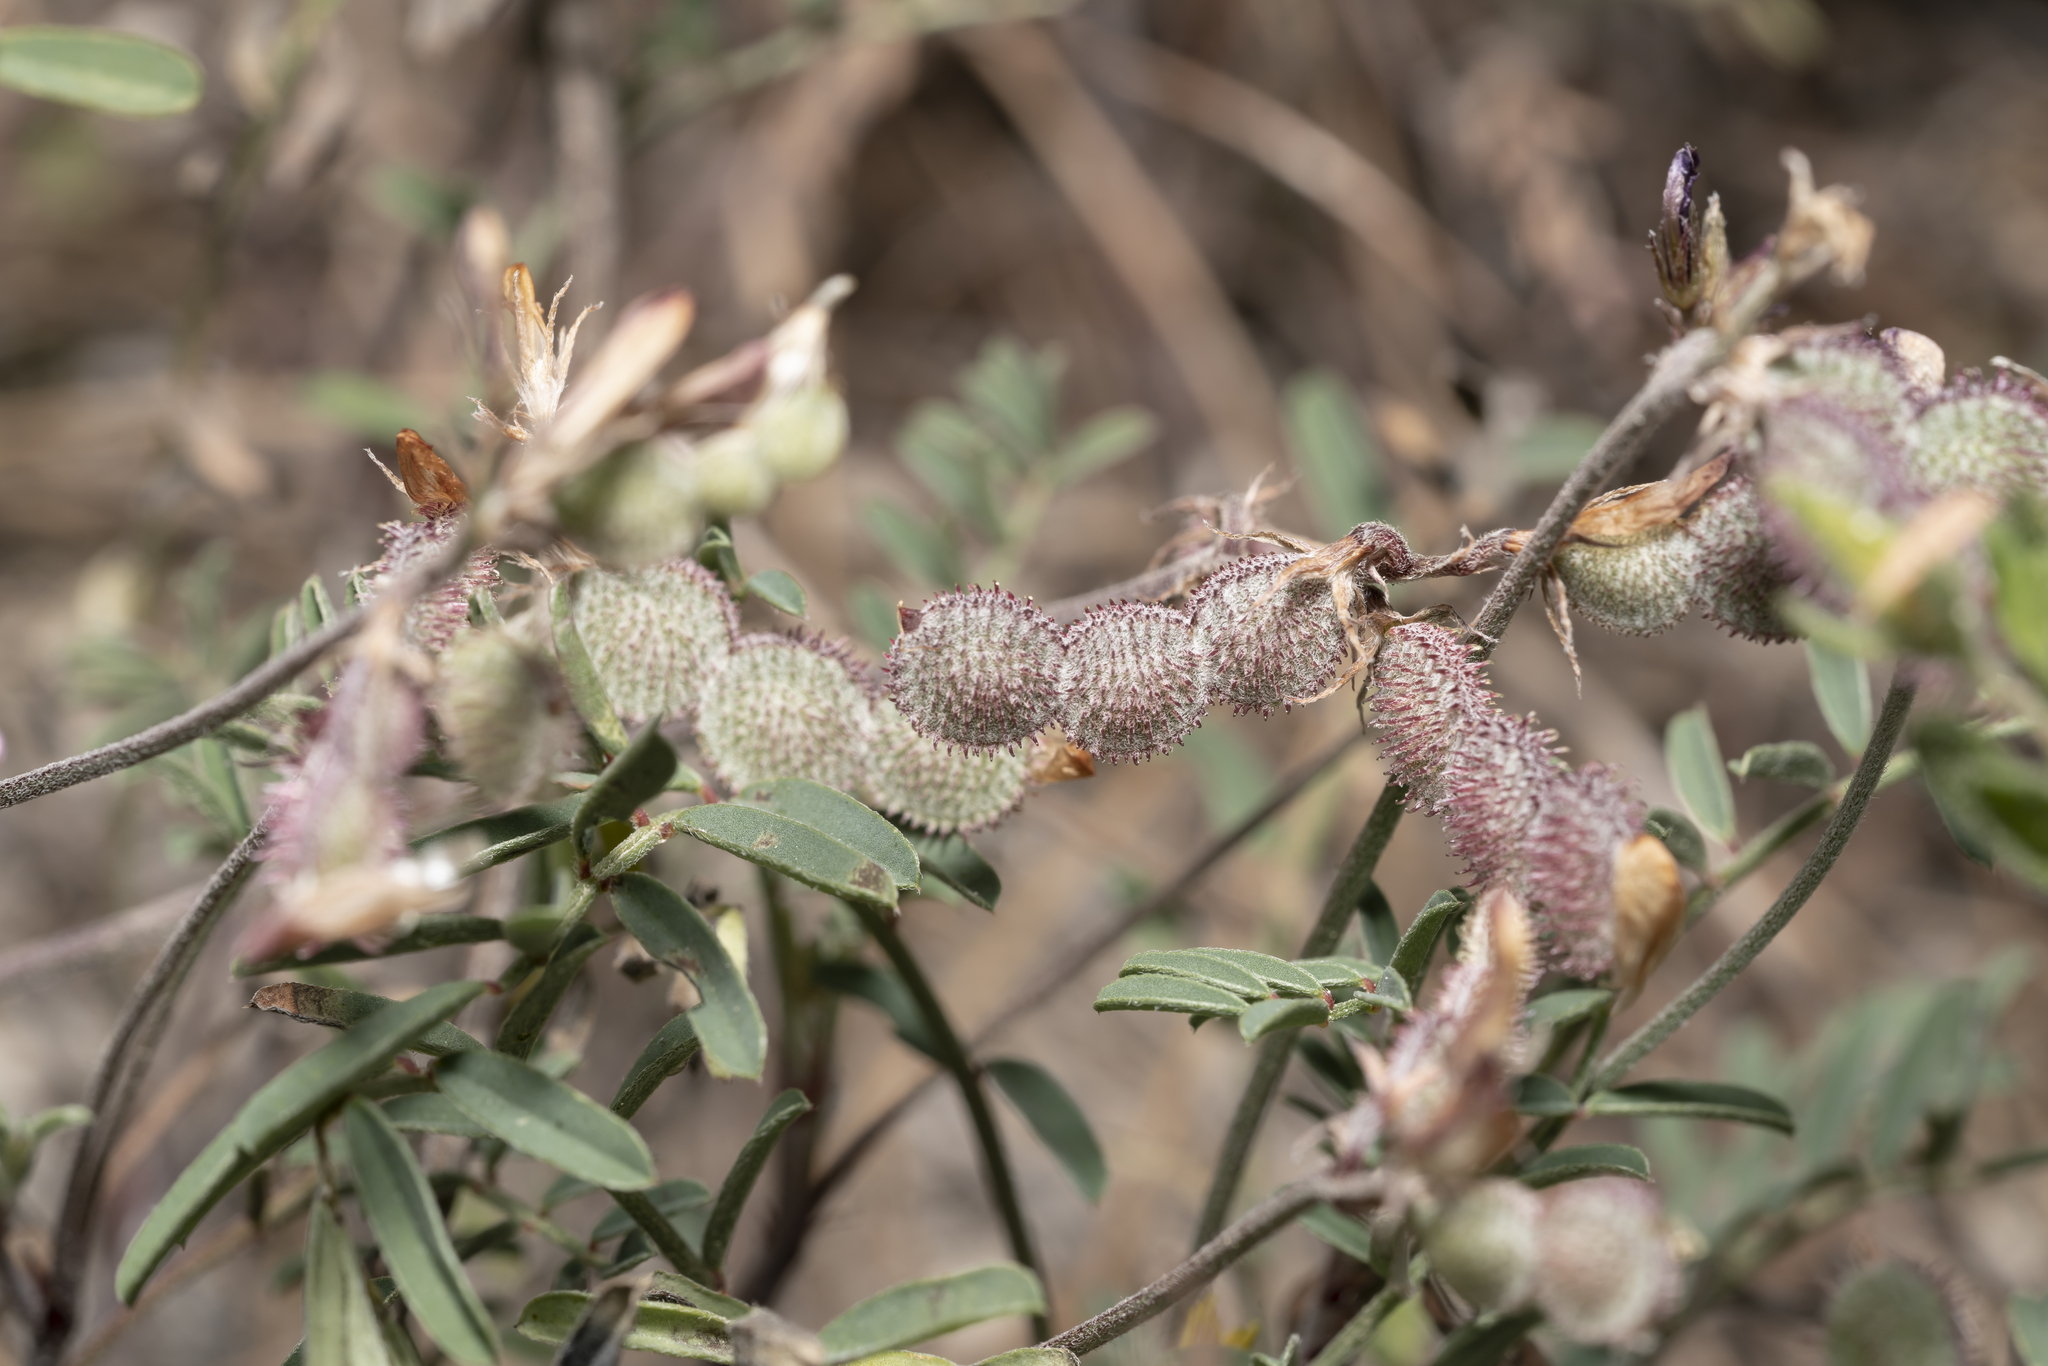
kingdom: Plantae
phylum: Tracheophyta
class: Magnoliopsida
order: Fabales
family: Fabaceae
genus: Sulla
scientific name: Sulla spinosissima
